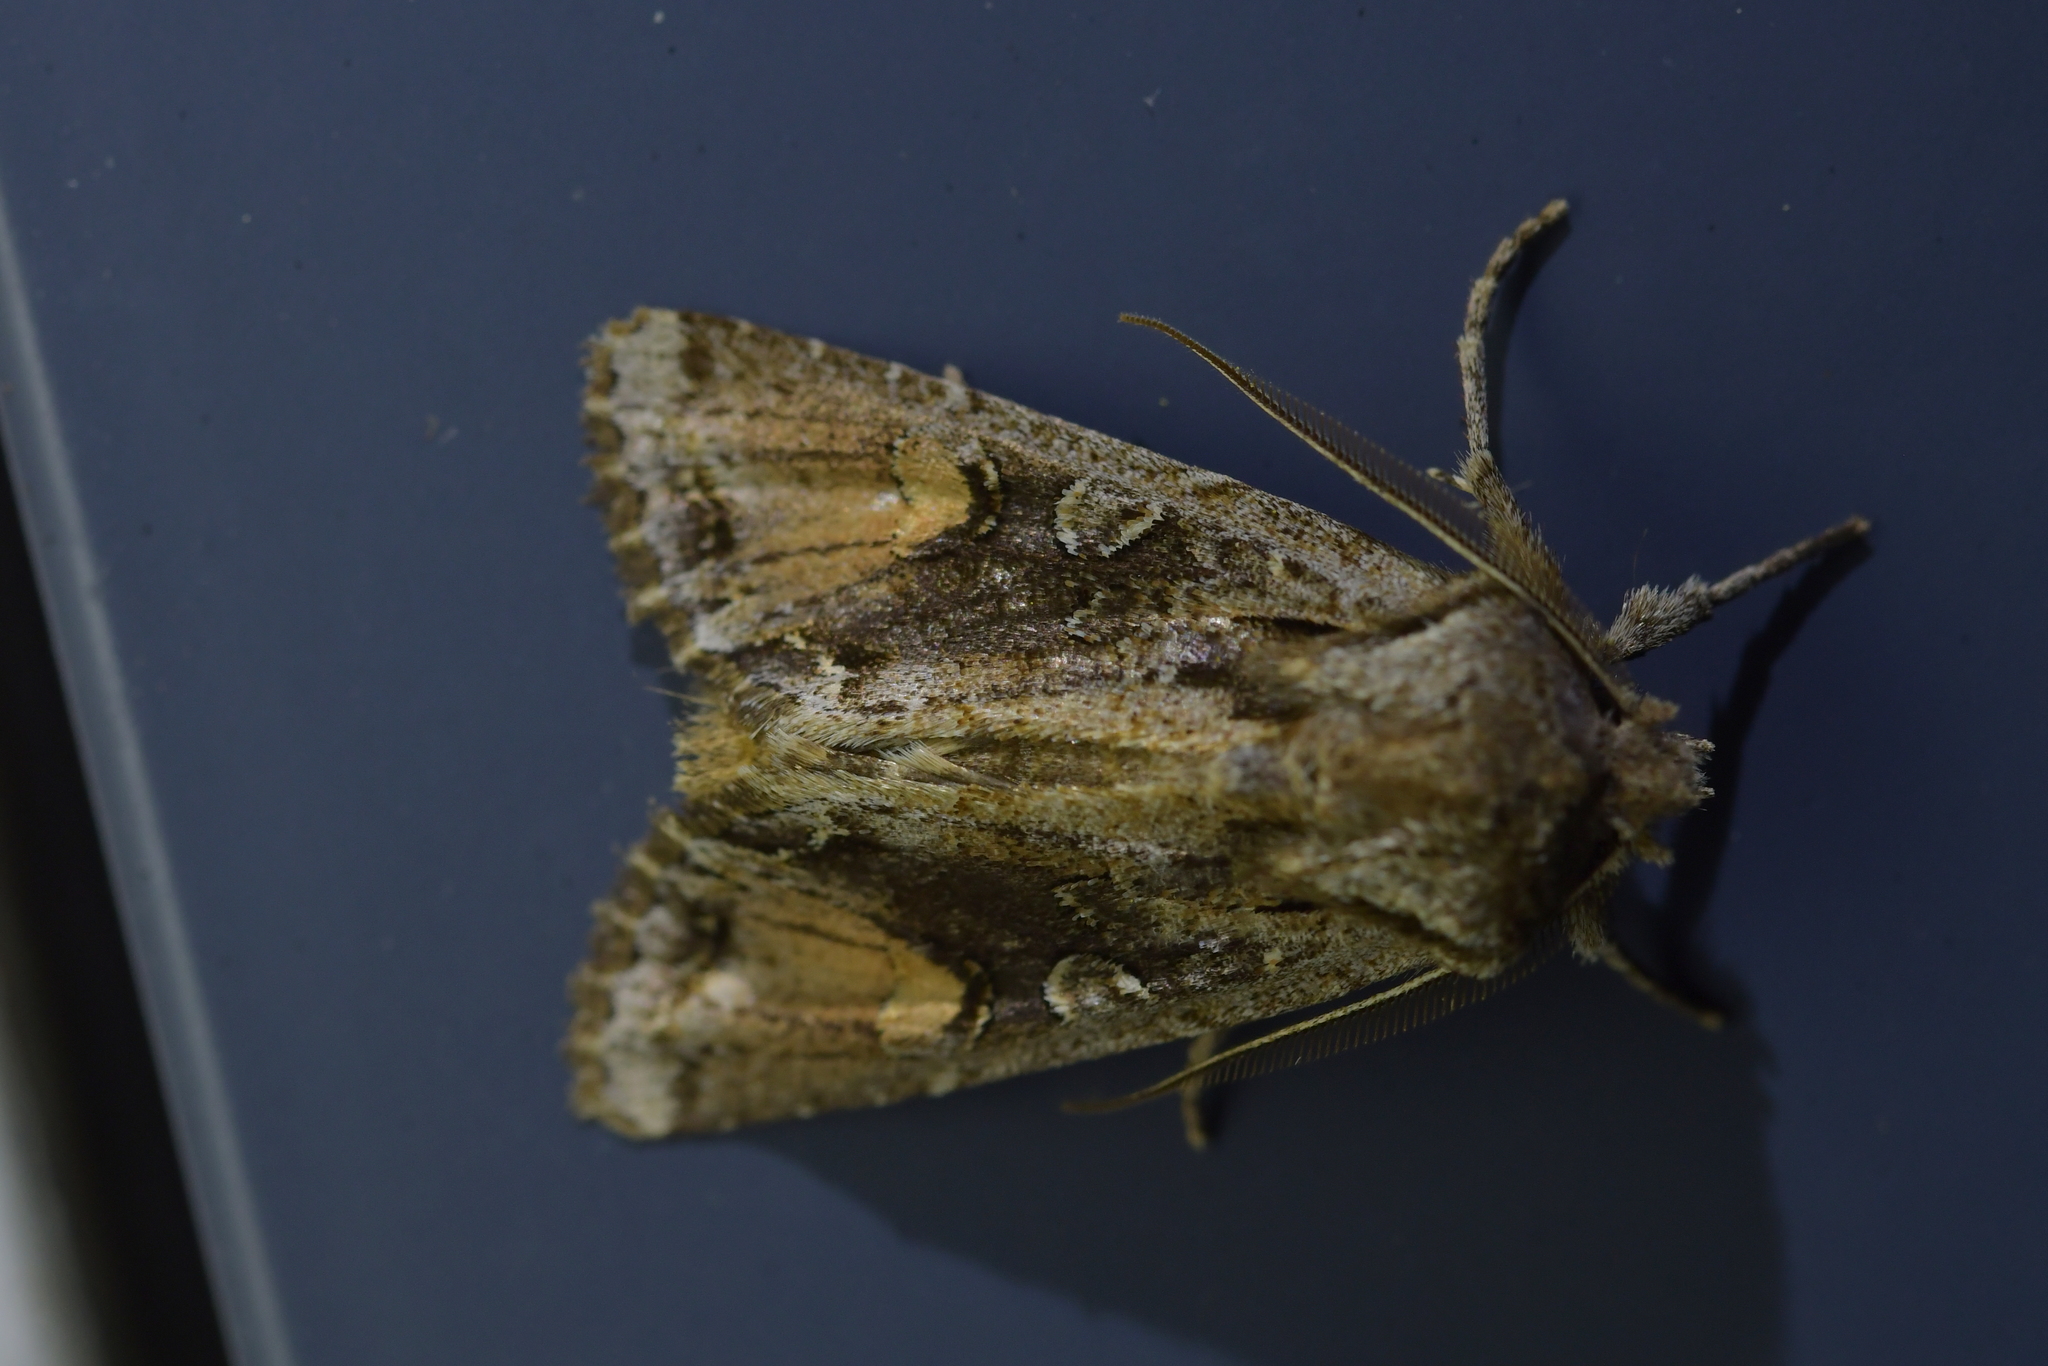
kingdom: Animalia
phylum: Arthropoda
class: Insecta
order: Lepidoptera
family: Noctuidae
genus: Ichneutica
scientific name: Ichneutica
